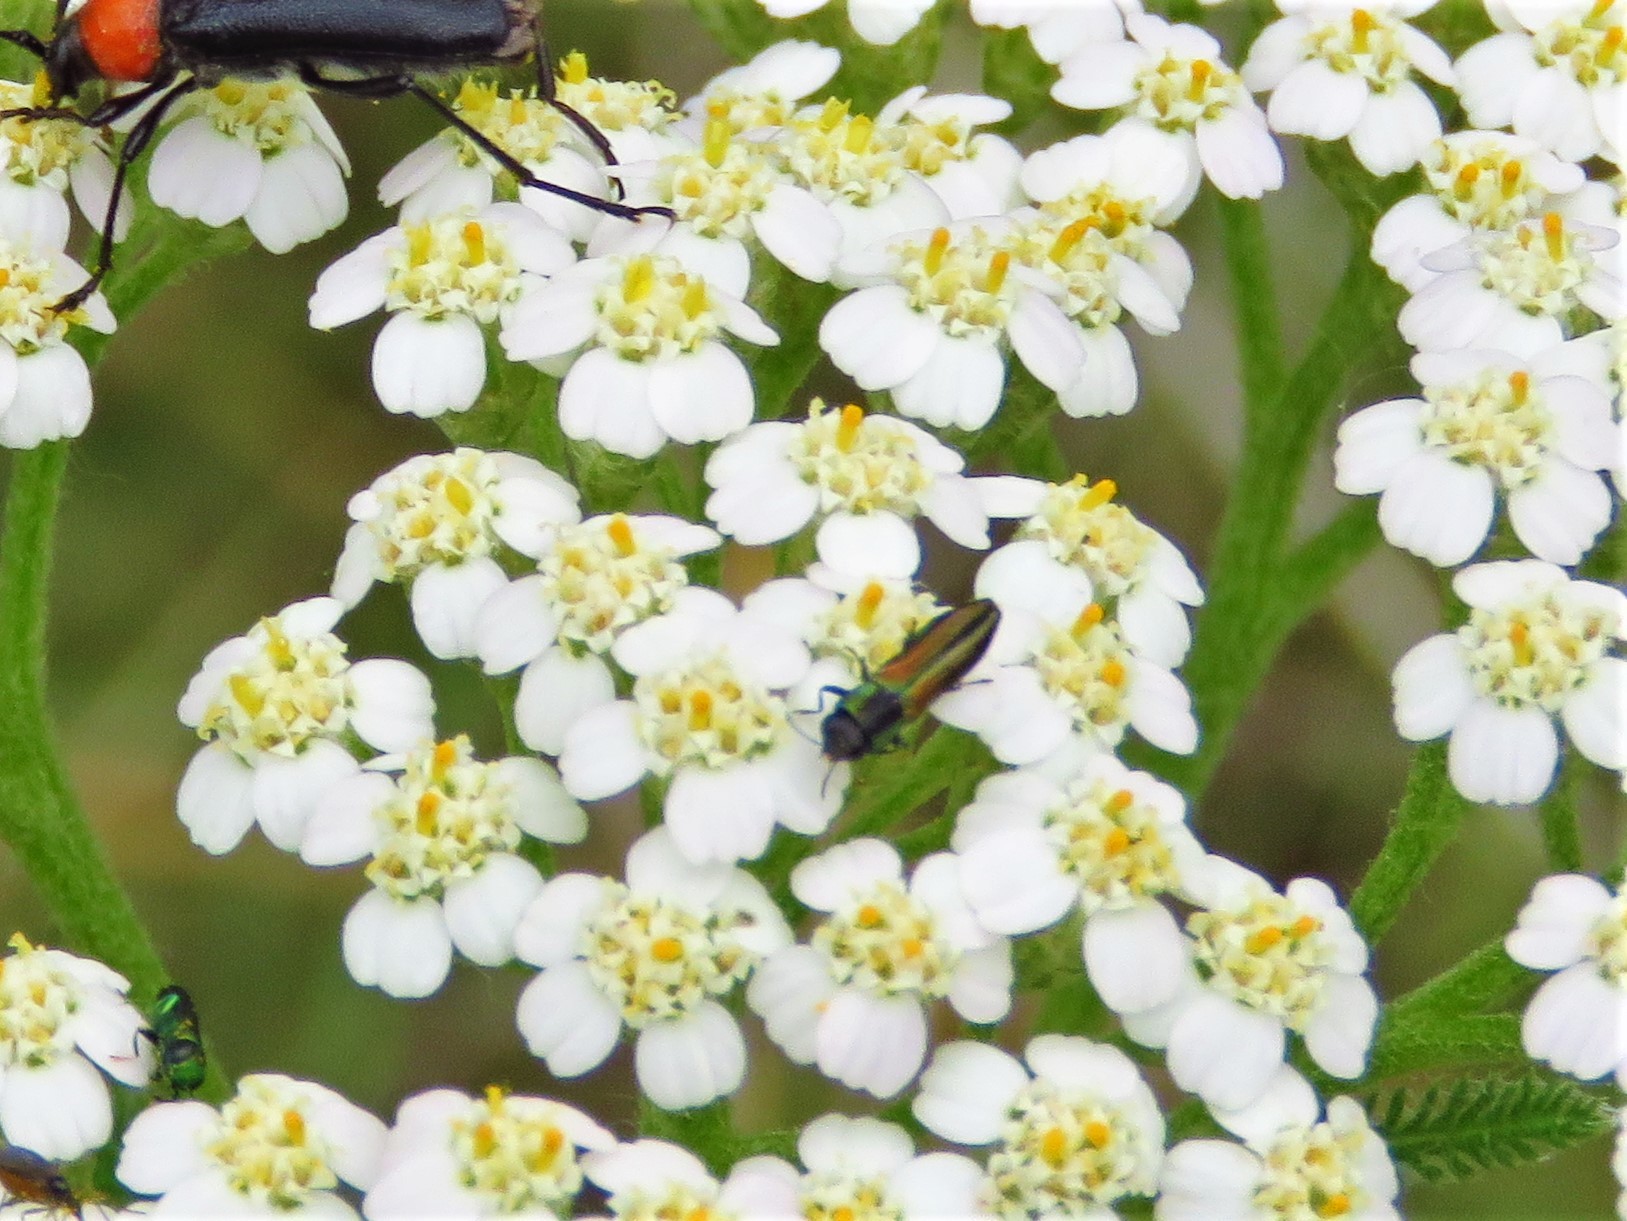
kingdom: Animalia
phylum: Arthropoda
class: Insecta
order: Coleoptera
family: Buprestidae
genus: Agrilaxia
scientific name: Agrilaxia flavimana
